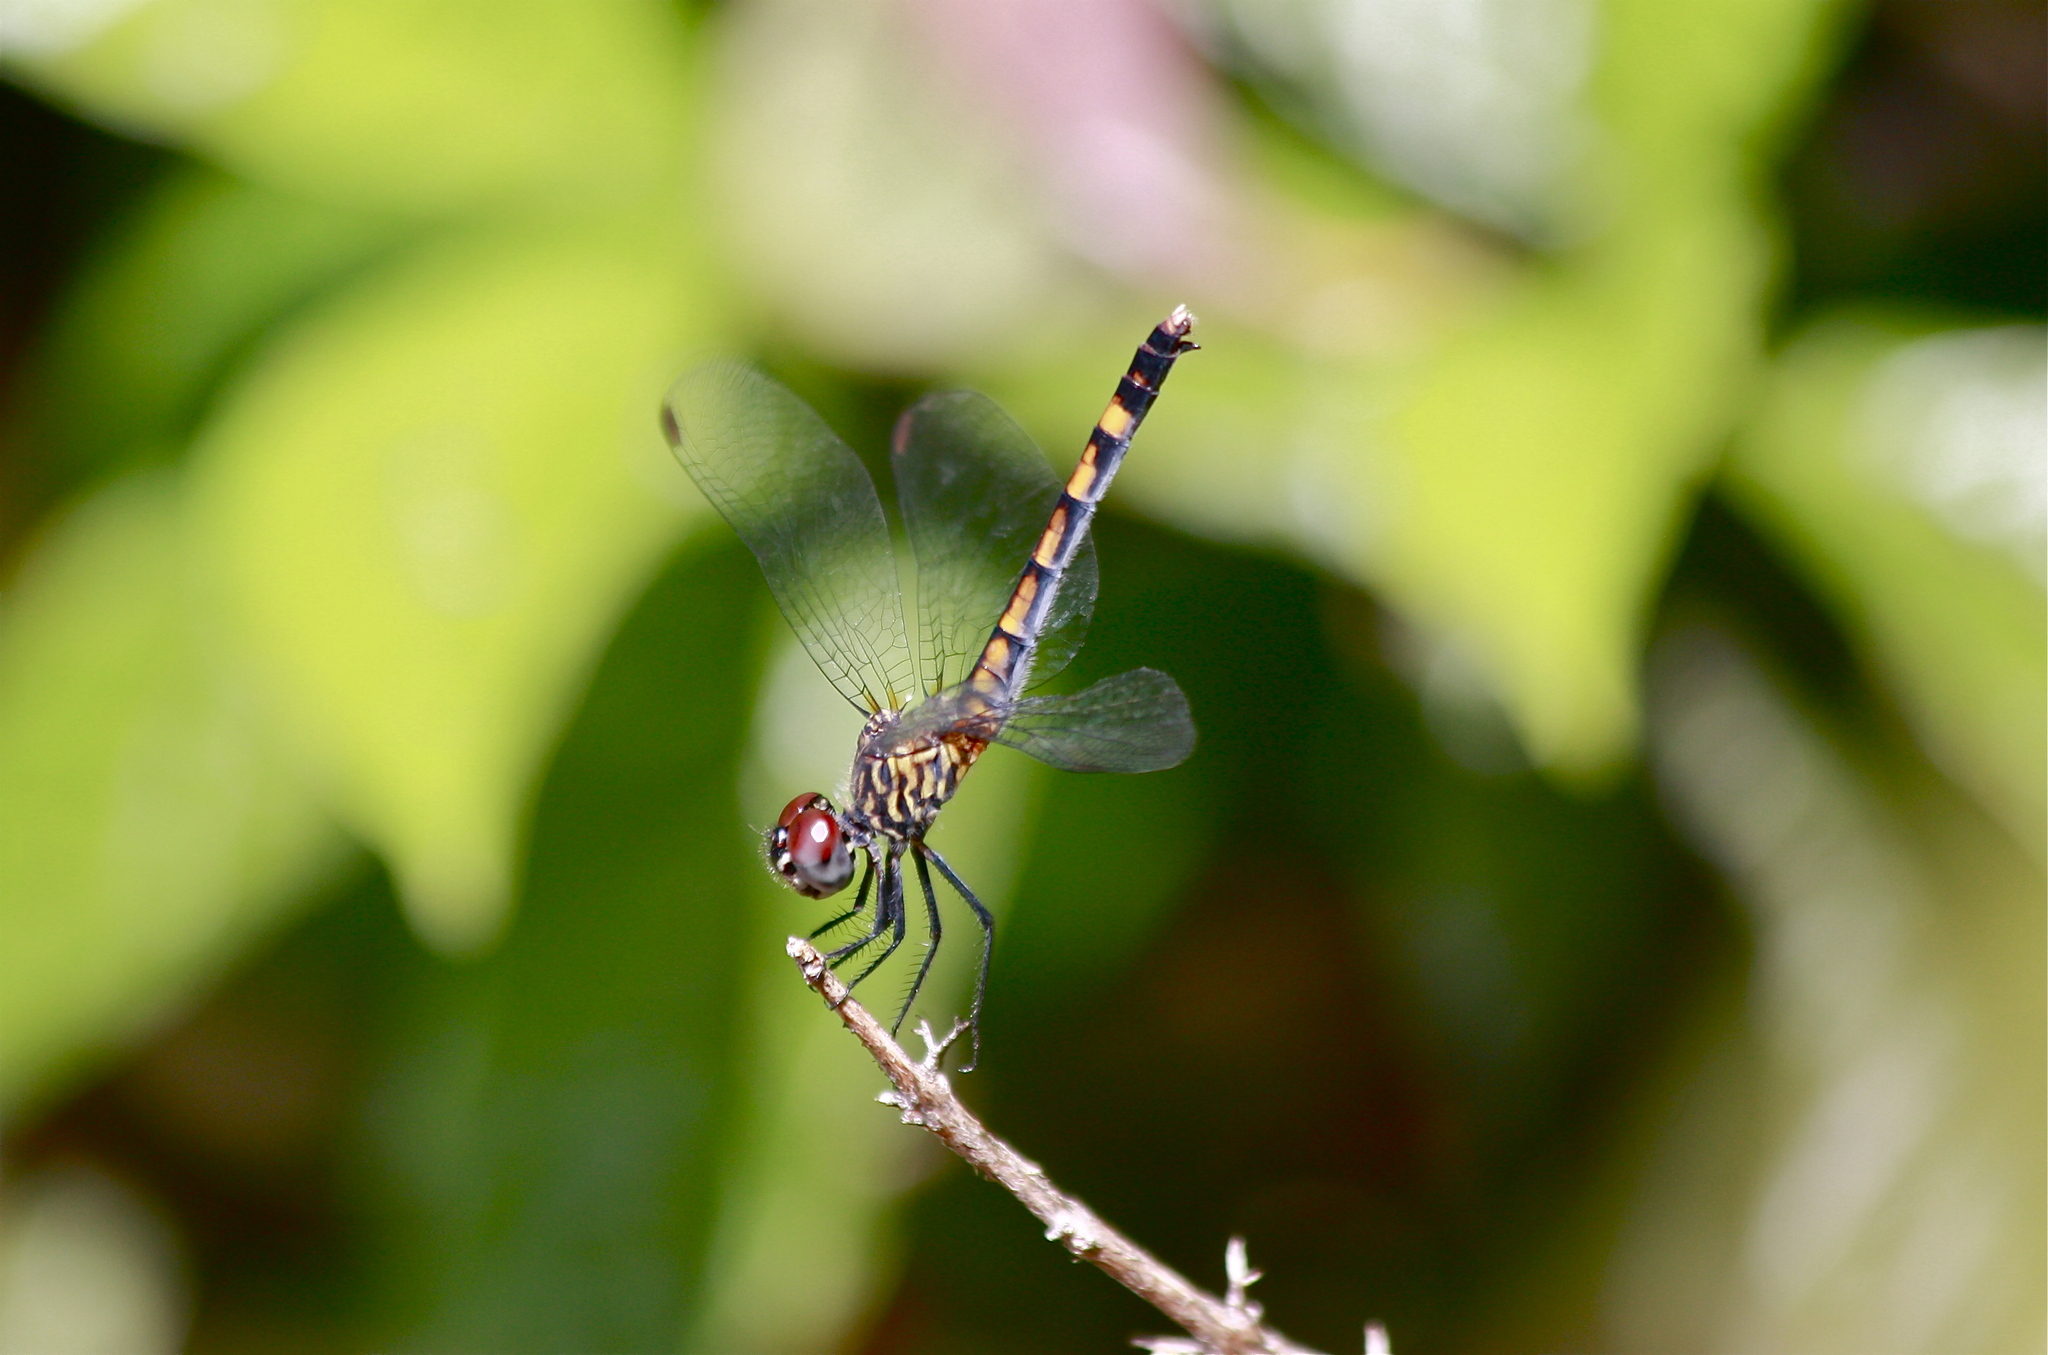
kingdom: Animalia
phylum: Arthropoda
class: Insecta
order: Odonata
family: Libellulidae
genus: Erythrodiplax
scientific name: Erythrodiplax berenice
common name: Seaside dragonlet
